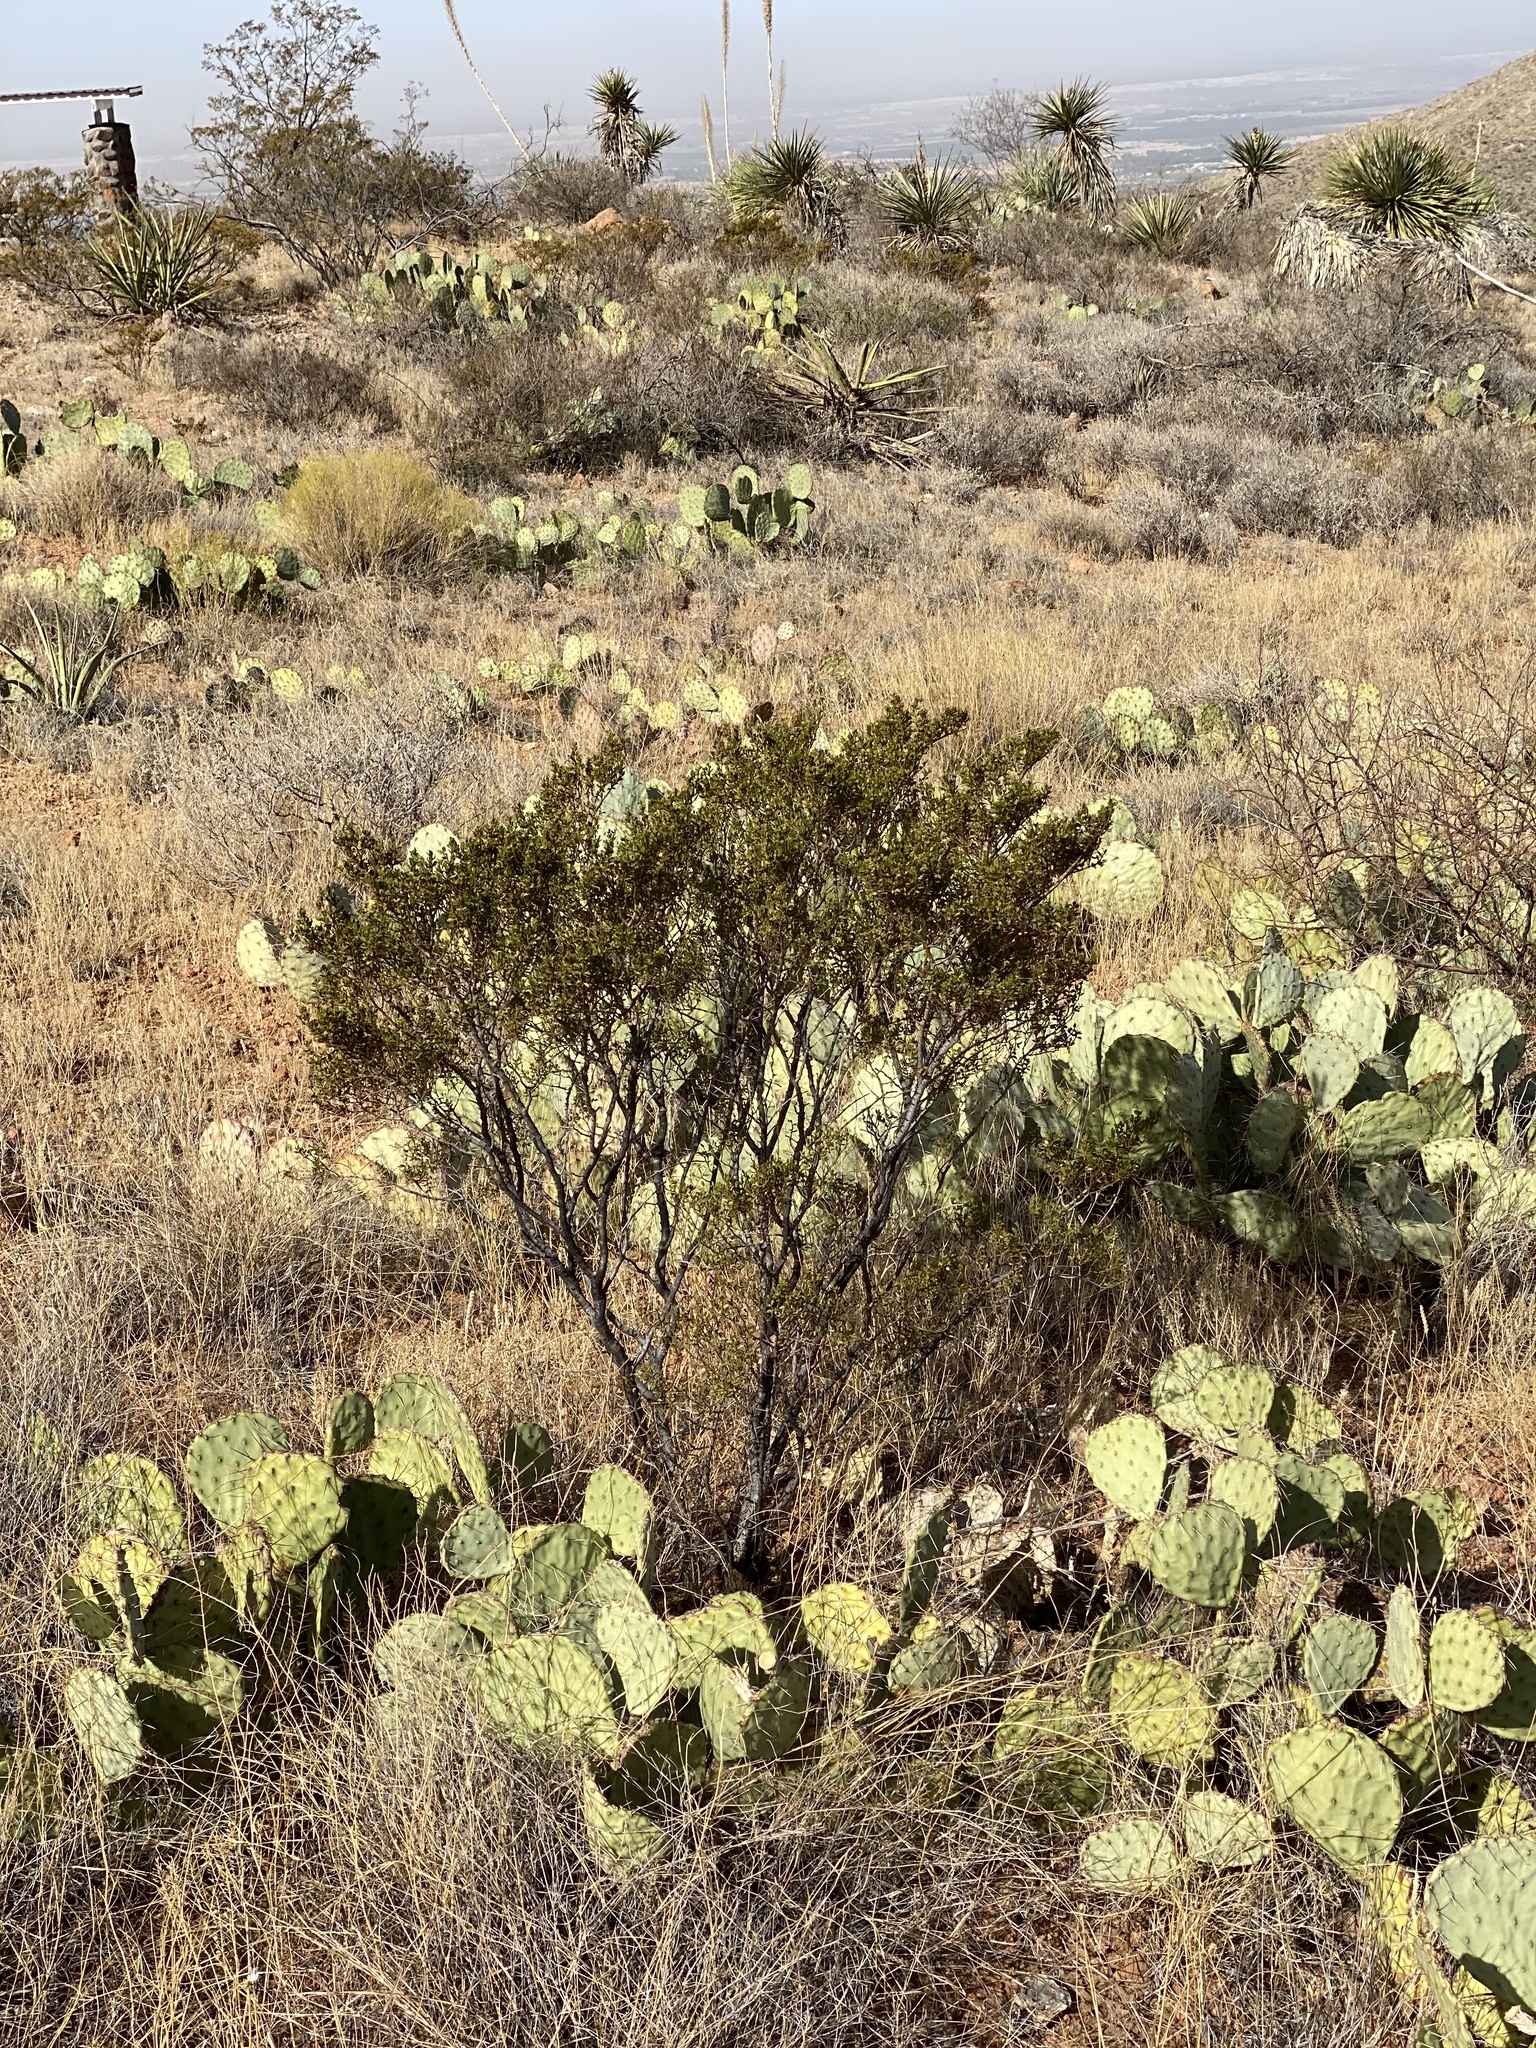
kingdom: Plantae
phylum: Tracheophyta
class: Magnoliopsida
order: Zygophyllales
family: Zygophyllaceae
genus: Larrea
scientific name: Larrea tridentata
